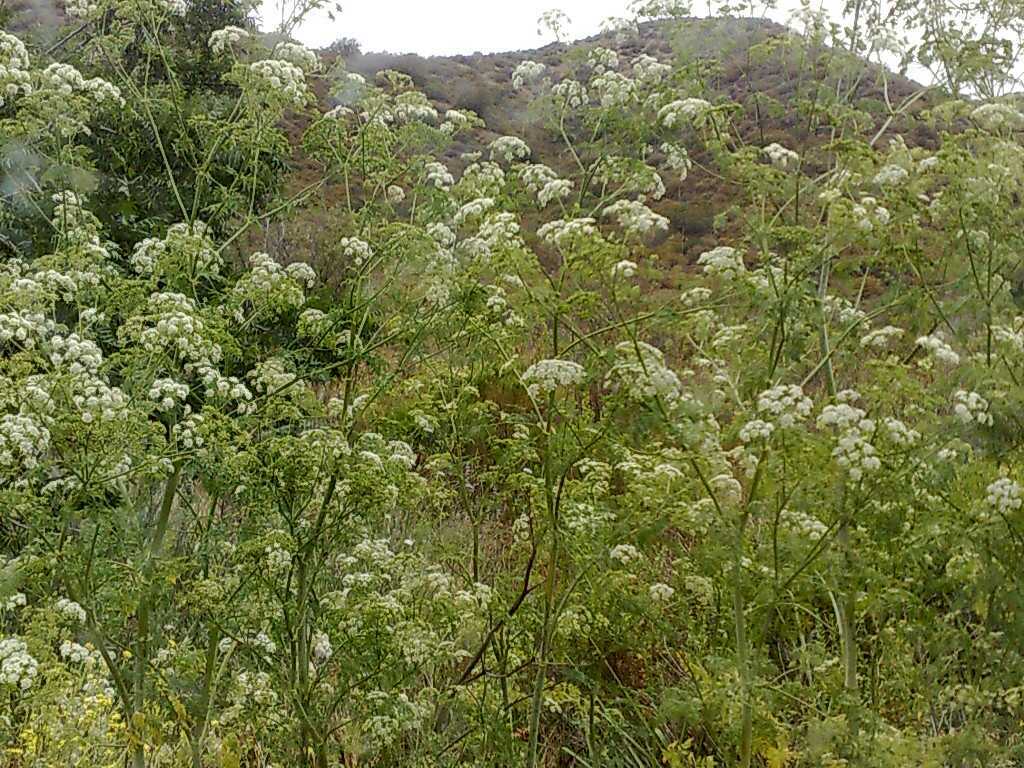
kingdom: Plantae
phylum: Tracheophyta
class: Magnoliopsida
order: Apiales
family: Apiaceae
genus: Conium
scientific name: Conium maculatum
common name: Hemlock
